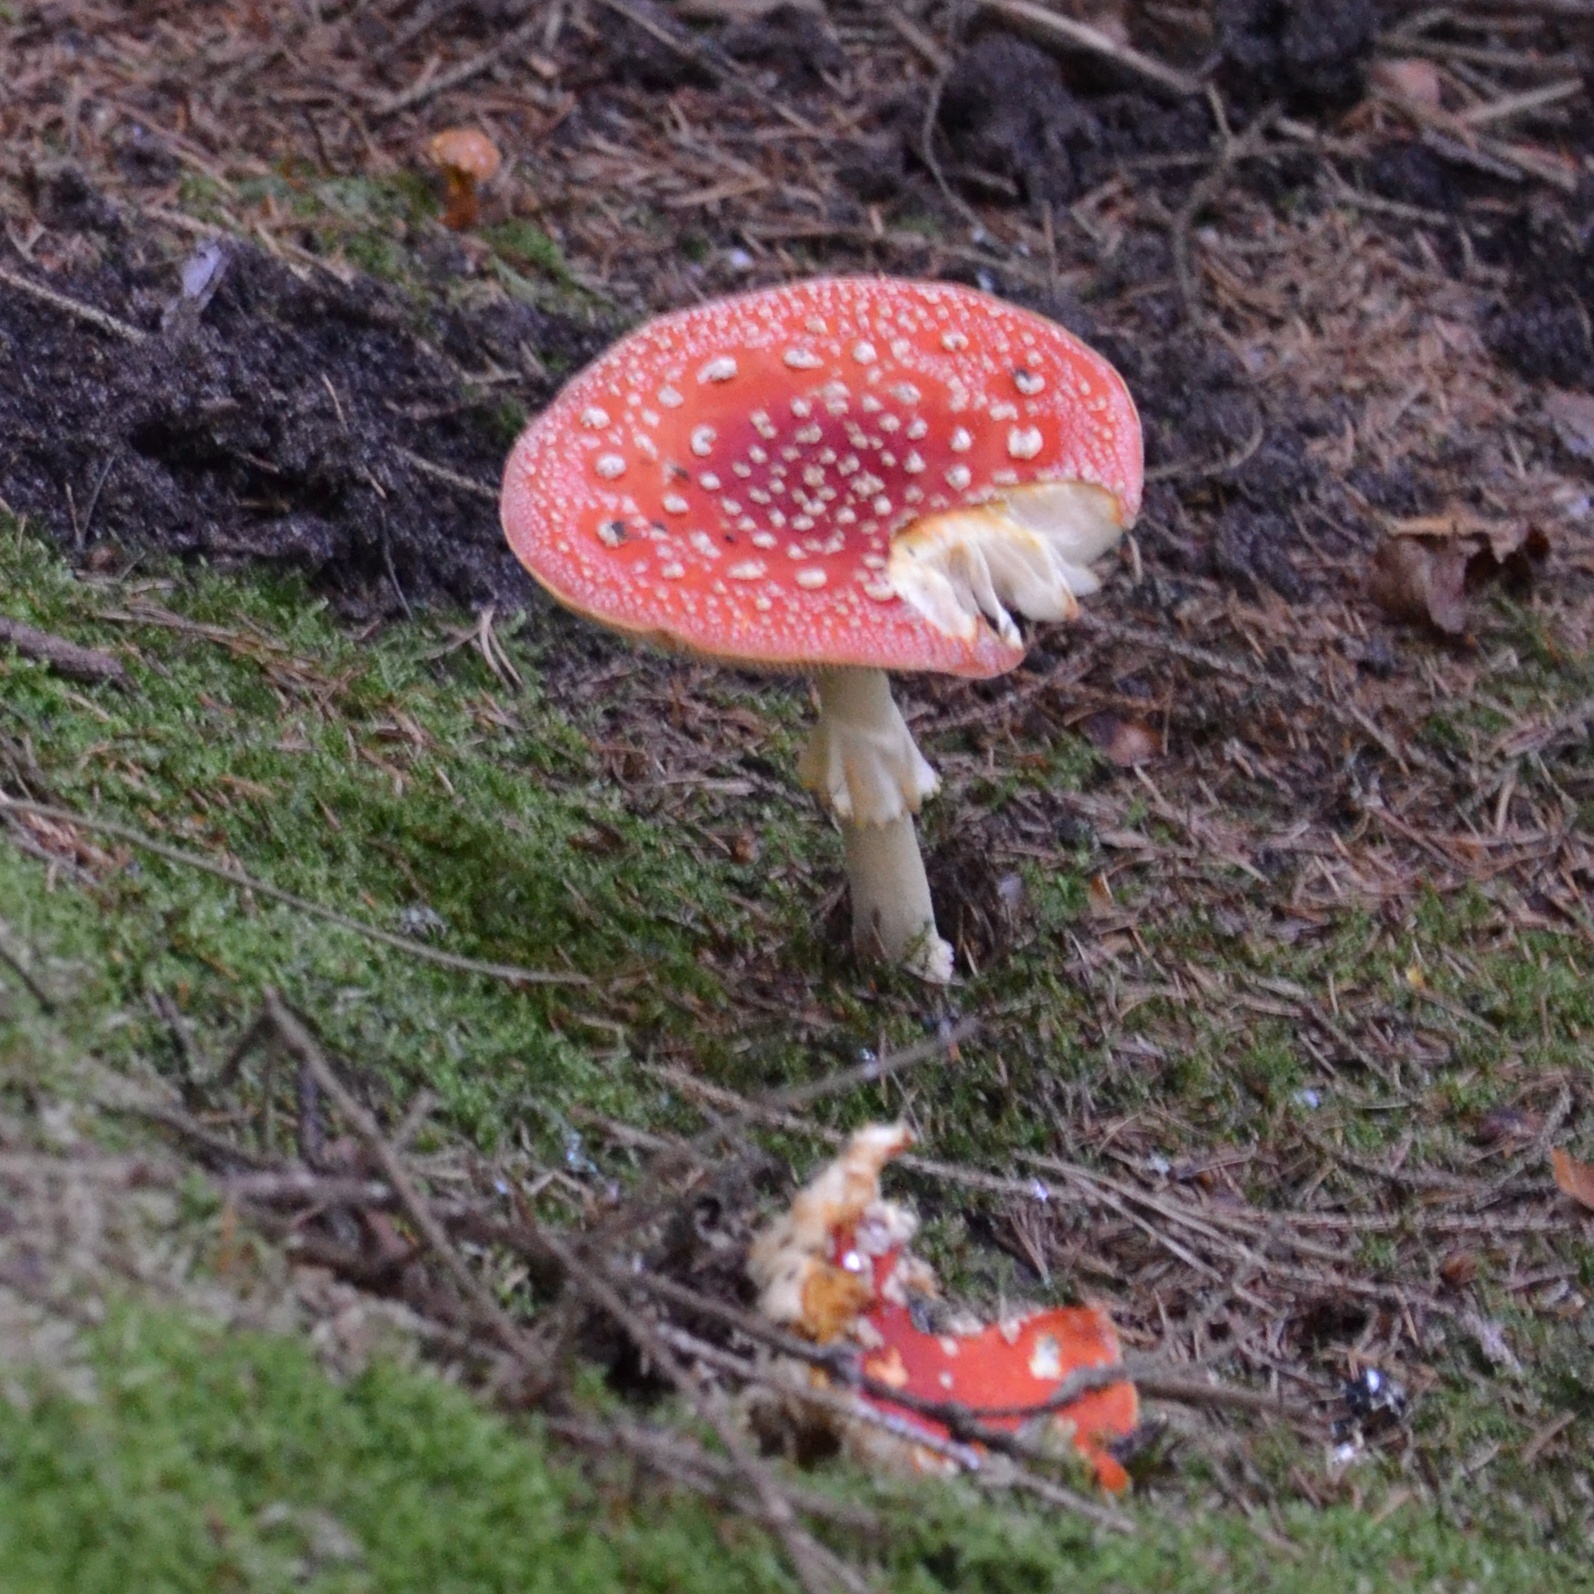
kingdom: Fungi
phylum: Basidiomycota
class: Agaricomycetes
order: Agaricales
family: Amanitaceae
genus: Amanita
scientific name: Amanita muscaria
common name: Fly agaric
